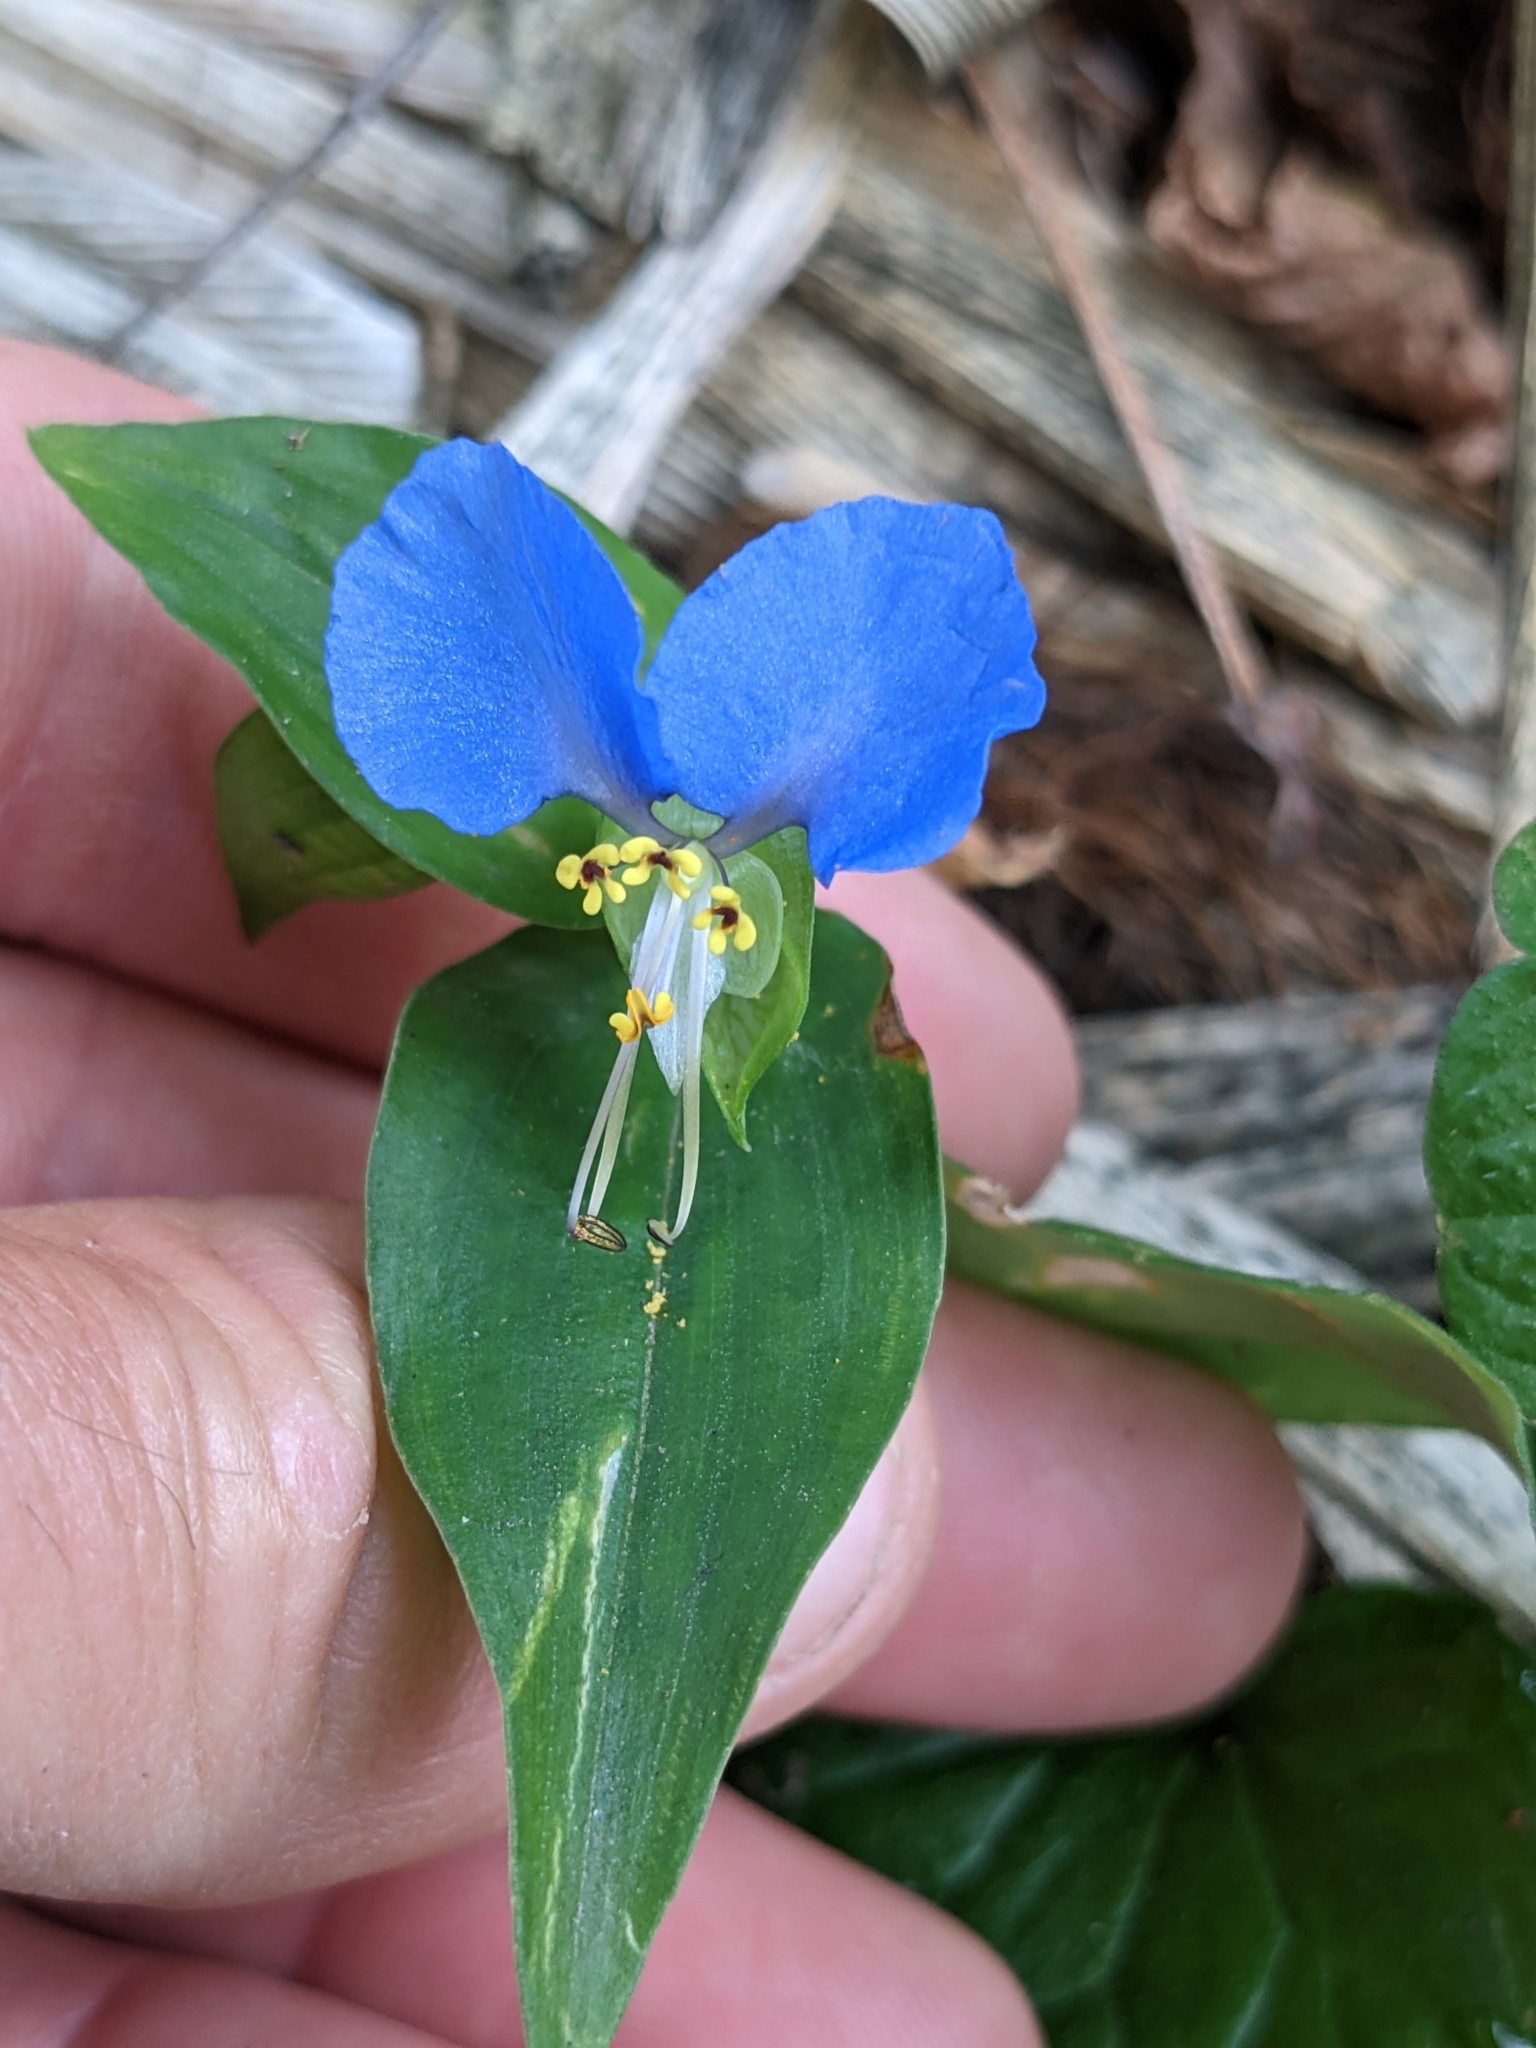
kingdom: Plantae
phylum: Tracheophyta
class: Liliopsida
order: Commelinales
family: Commelinaceae
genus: Commelina
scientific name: Commelina communis
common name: Asiatic dayflower
